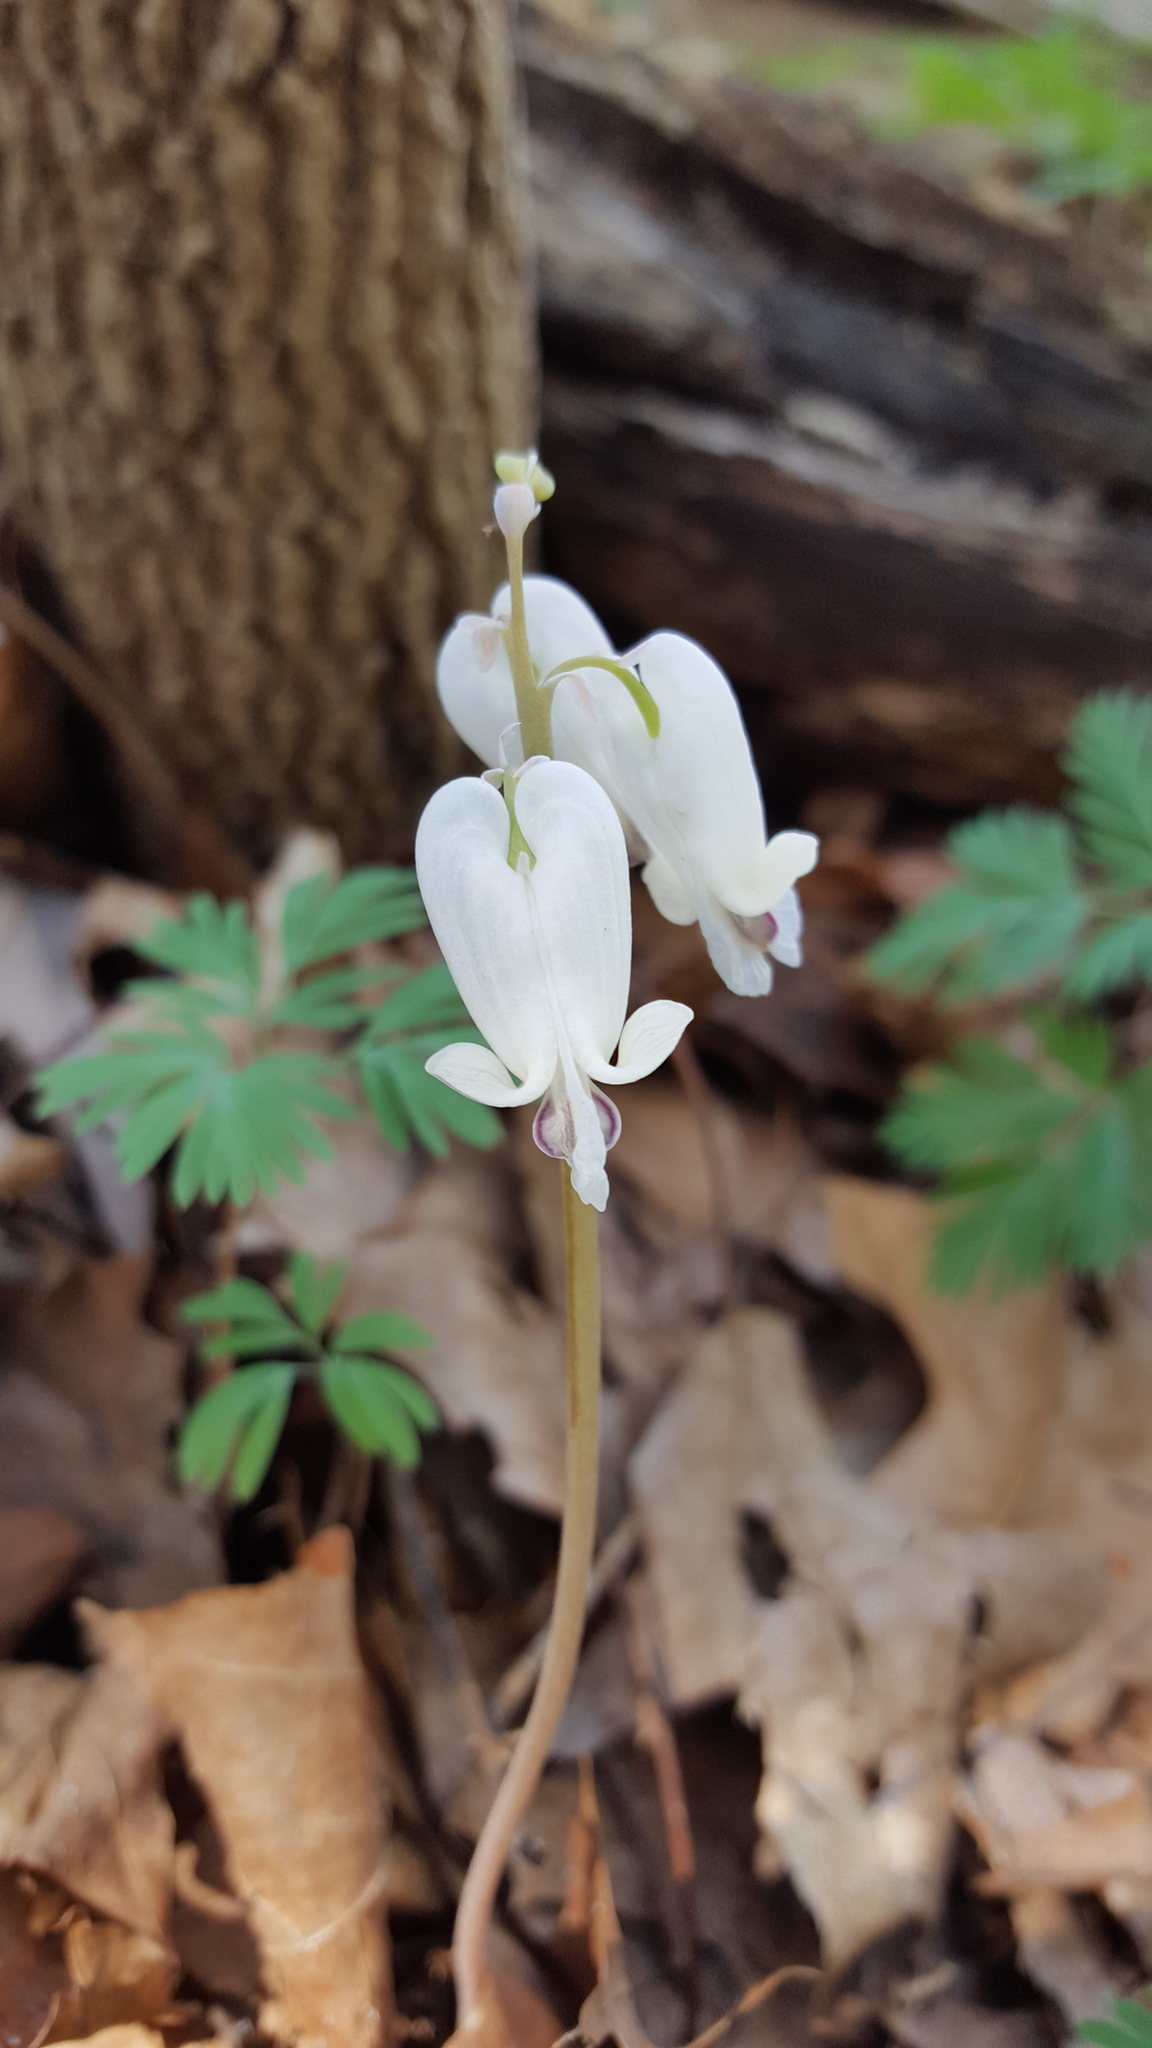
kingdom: Plantae
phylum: Tracheophyta
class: Magnoliopsida
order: Ranunculales
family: Papaveraceae
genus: Dicentra
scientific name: Dicentra canadensis
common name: Squirrel-corn
